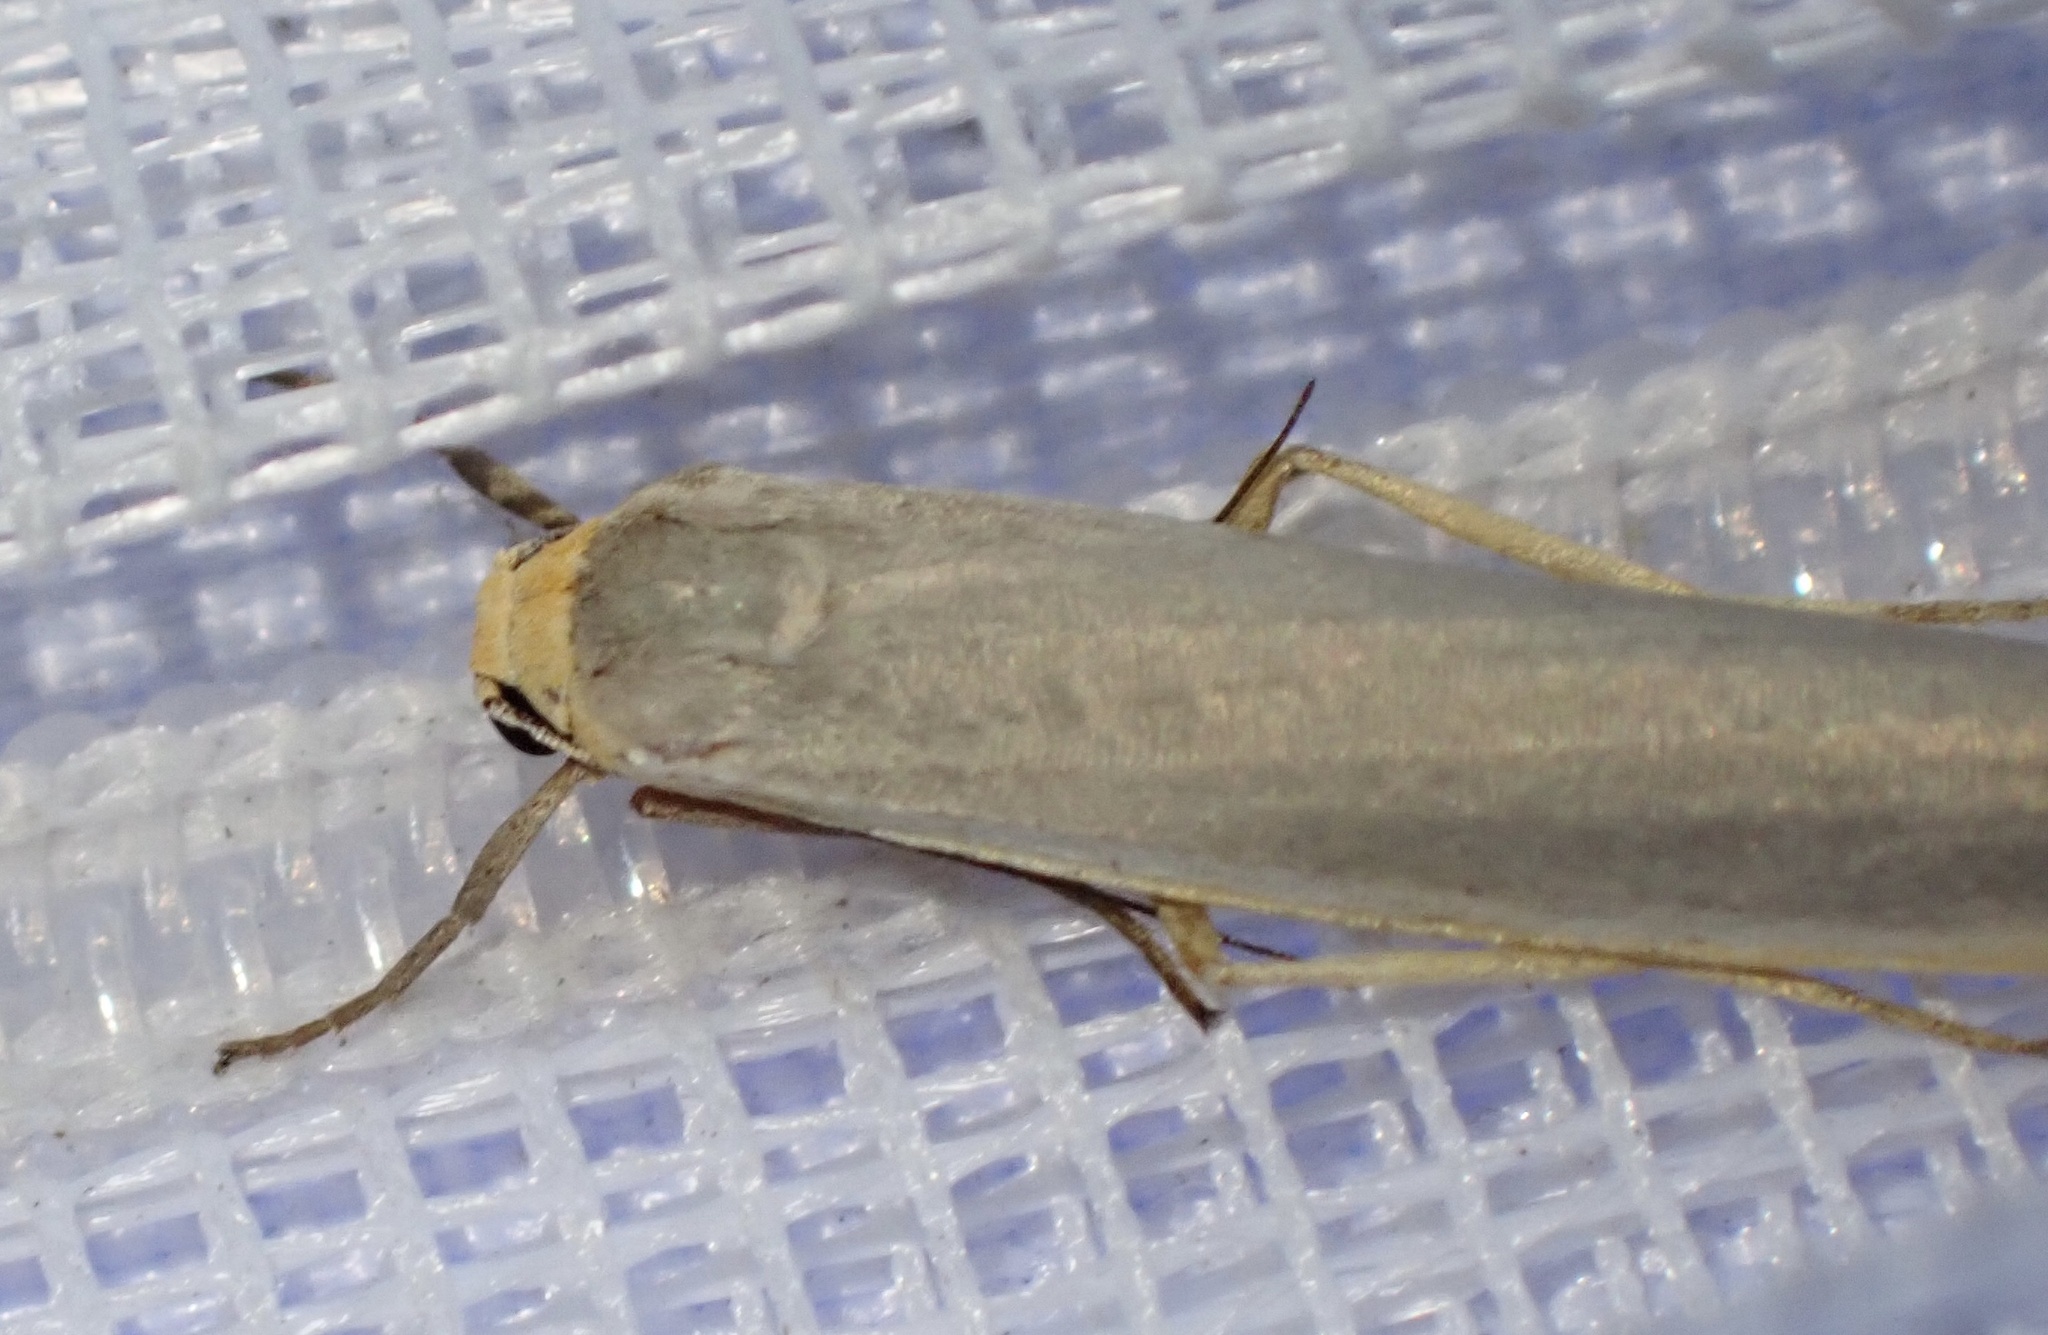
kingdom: Animalia
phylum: Arthropoda
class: Insecta
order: Lepidoptera
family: Erebidae
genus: Manulea
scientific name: Manulea complana
